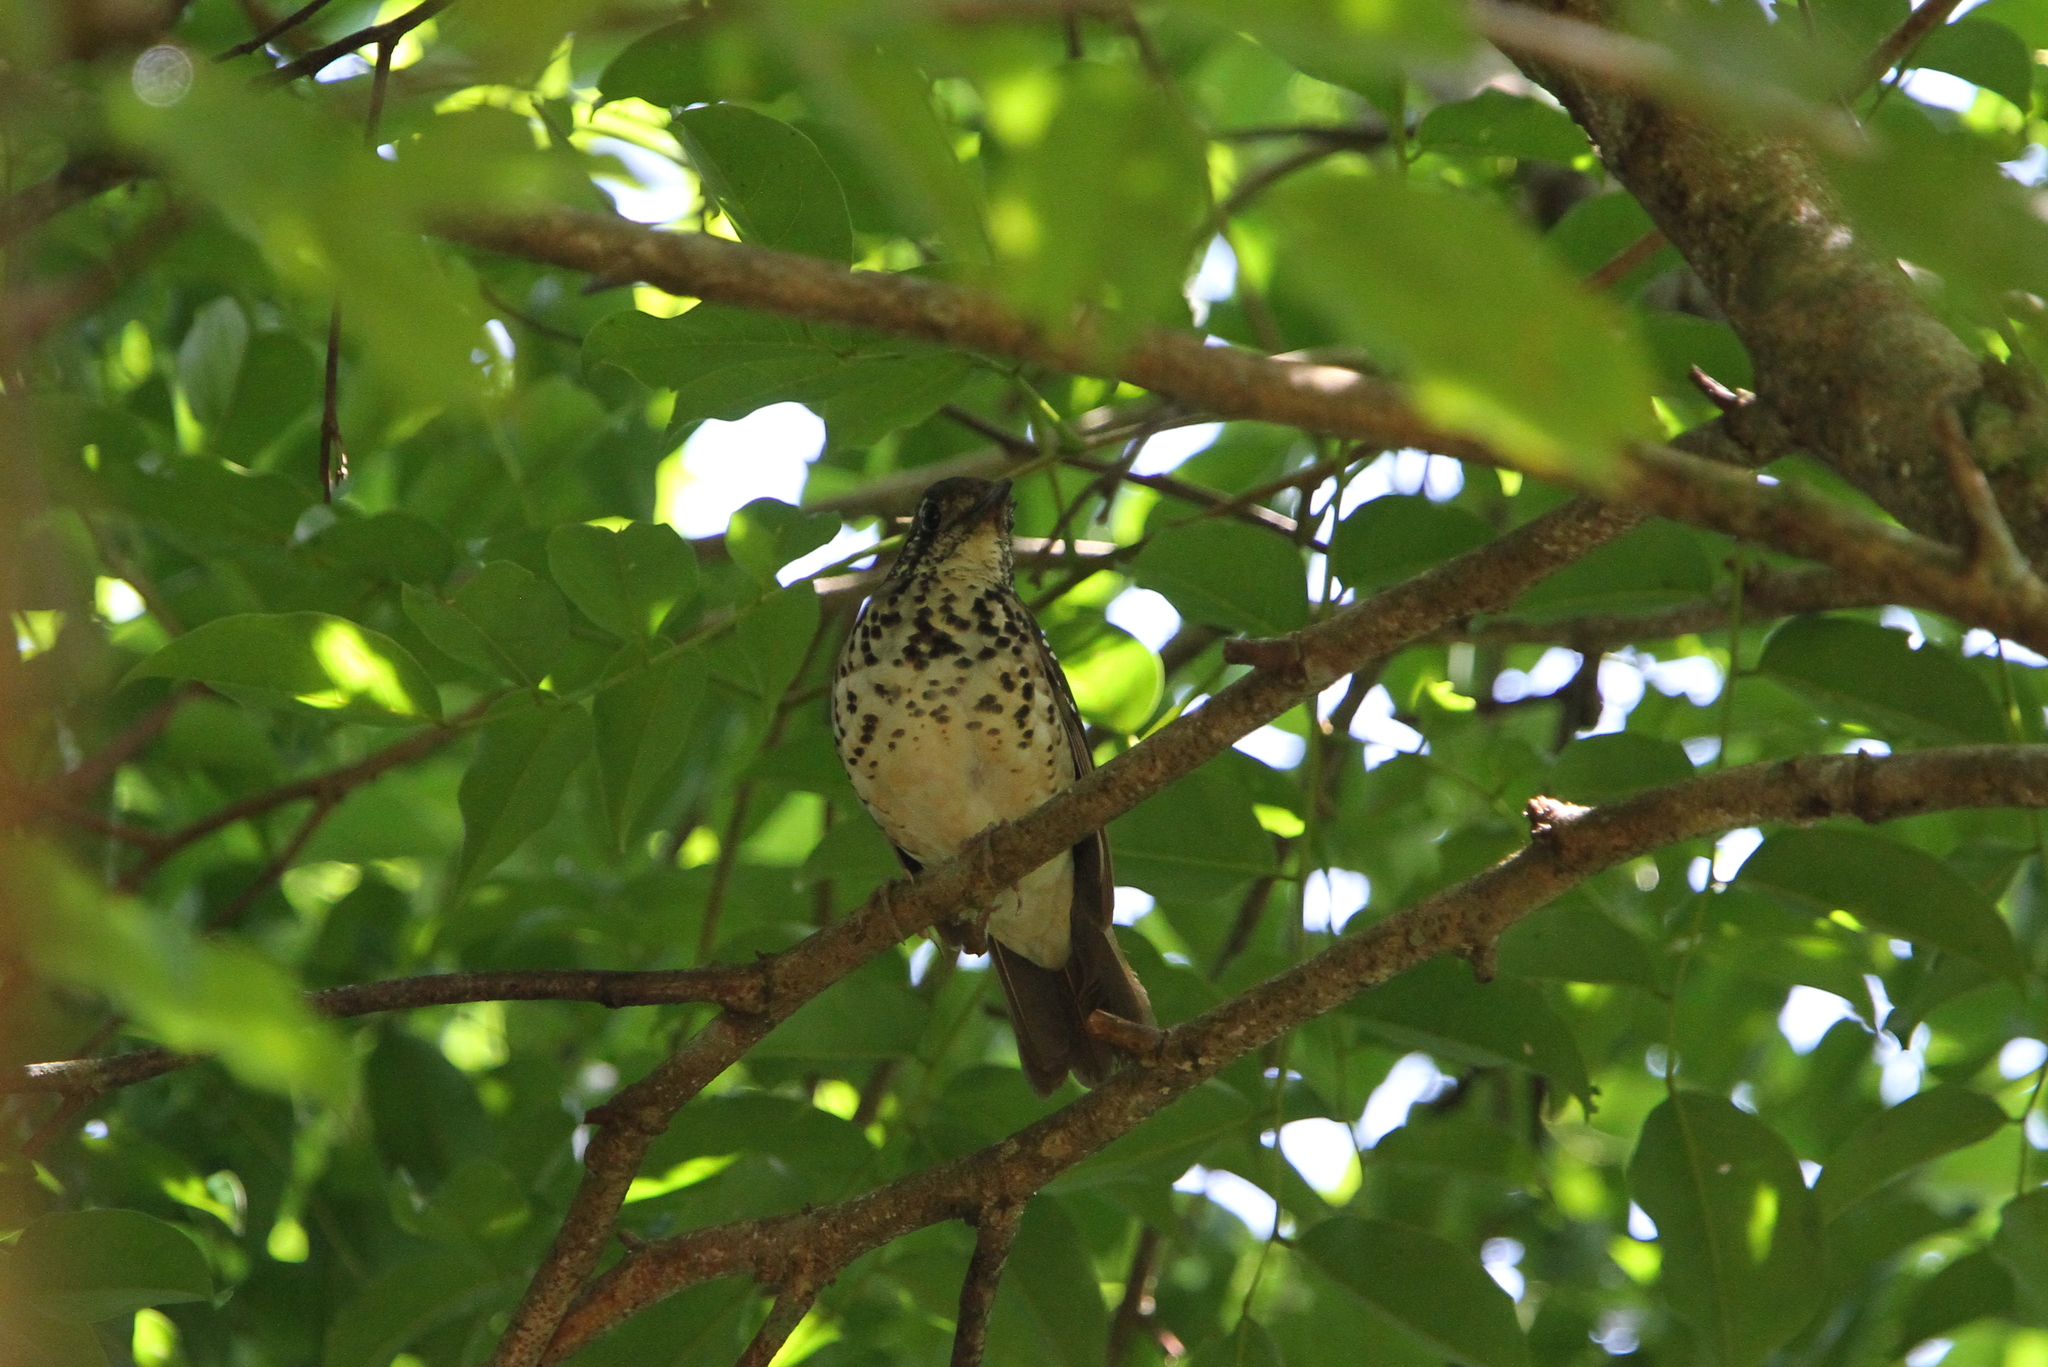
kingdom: Animalia
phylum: Chordata
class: Aves
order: Passeriformes
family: Turdidae
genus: Geokichla
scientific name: Geokichla spiloptera
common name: Spot-winged thrush
